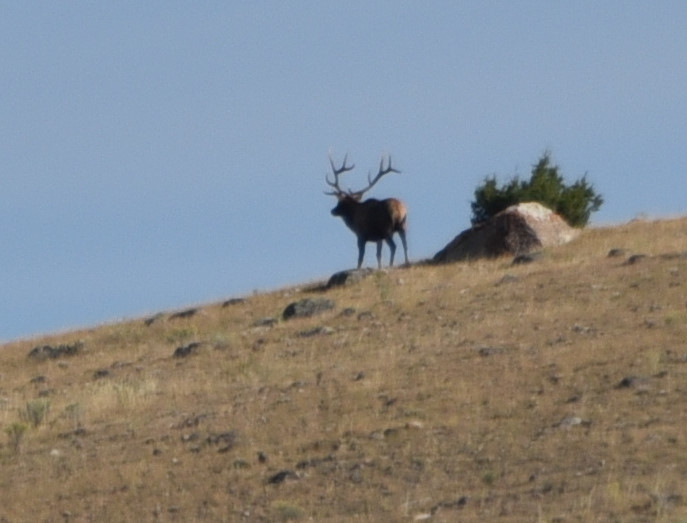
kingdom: Animalia
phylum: Chordata
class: Mammalia
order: Artiodactyla
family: Cervidae
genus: Cervus
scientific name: Cervus elaphus
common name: Red deer
